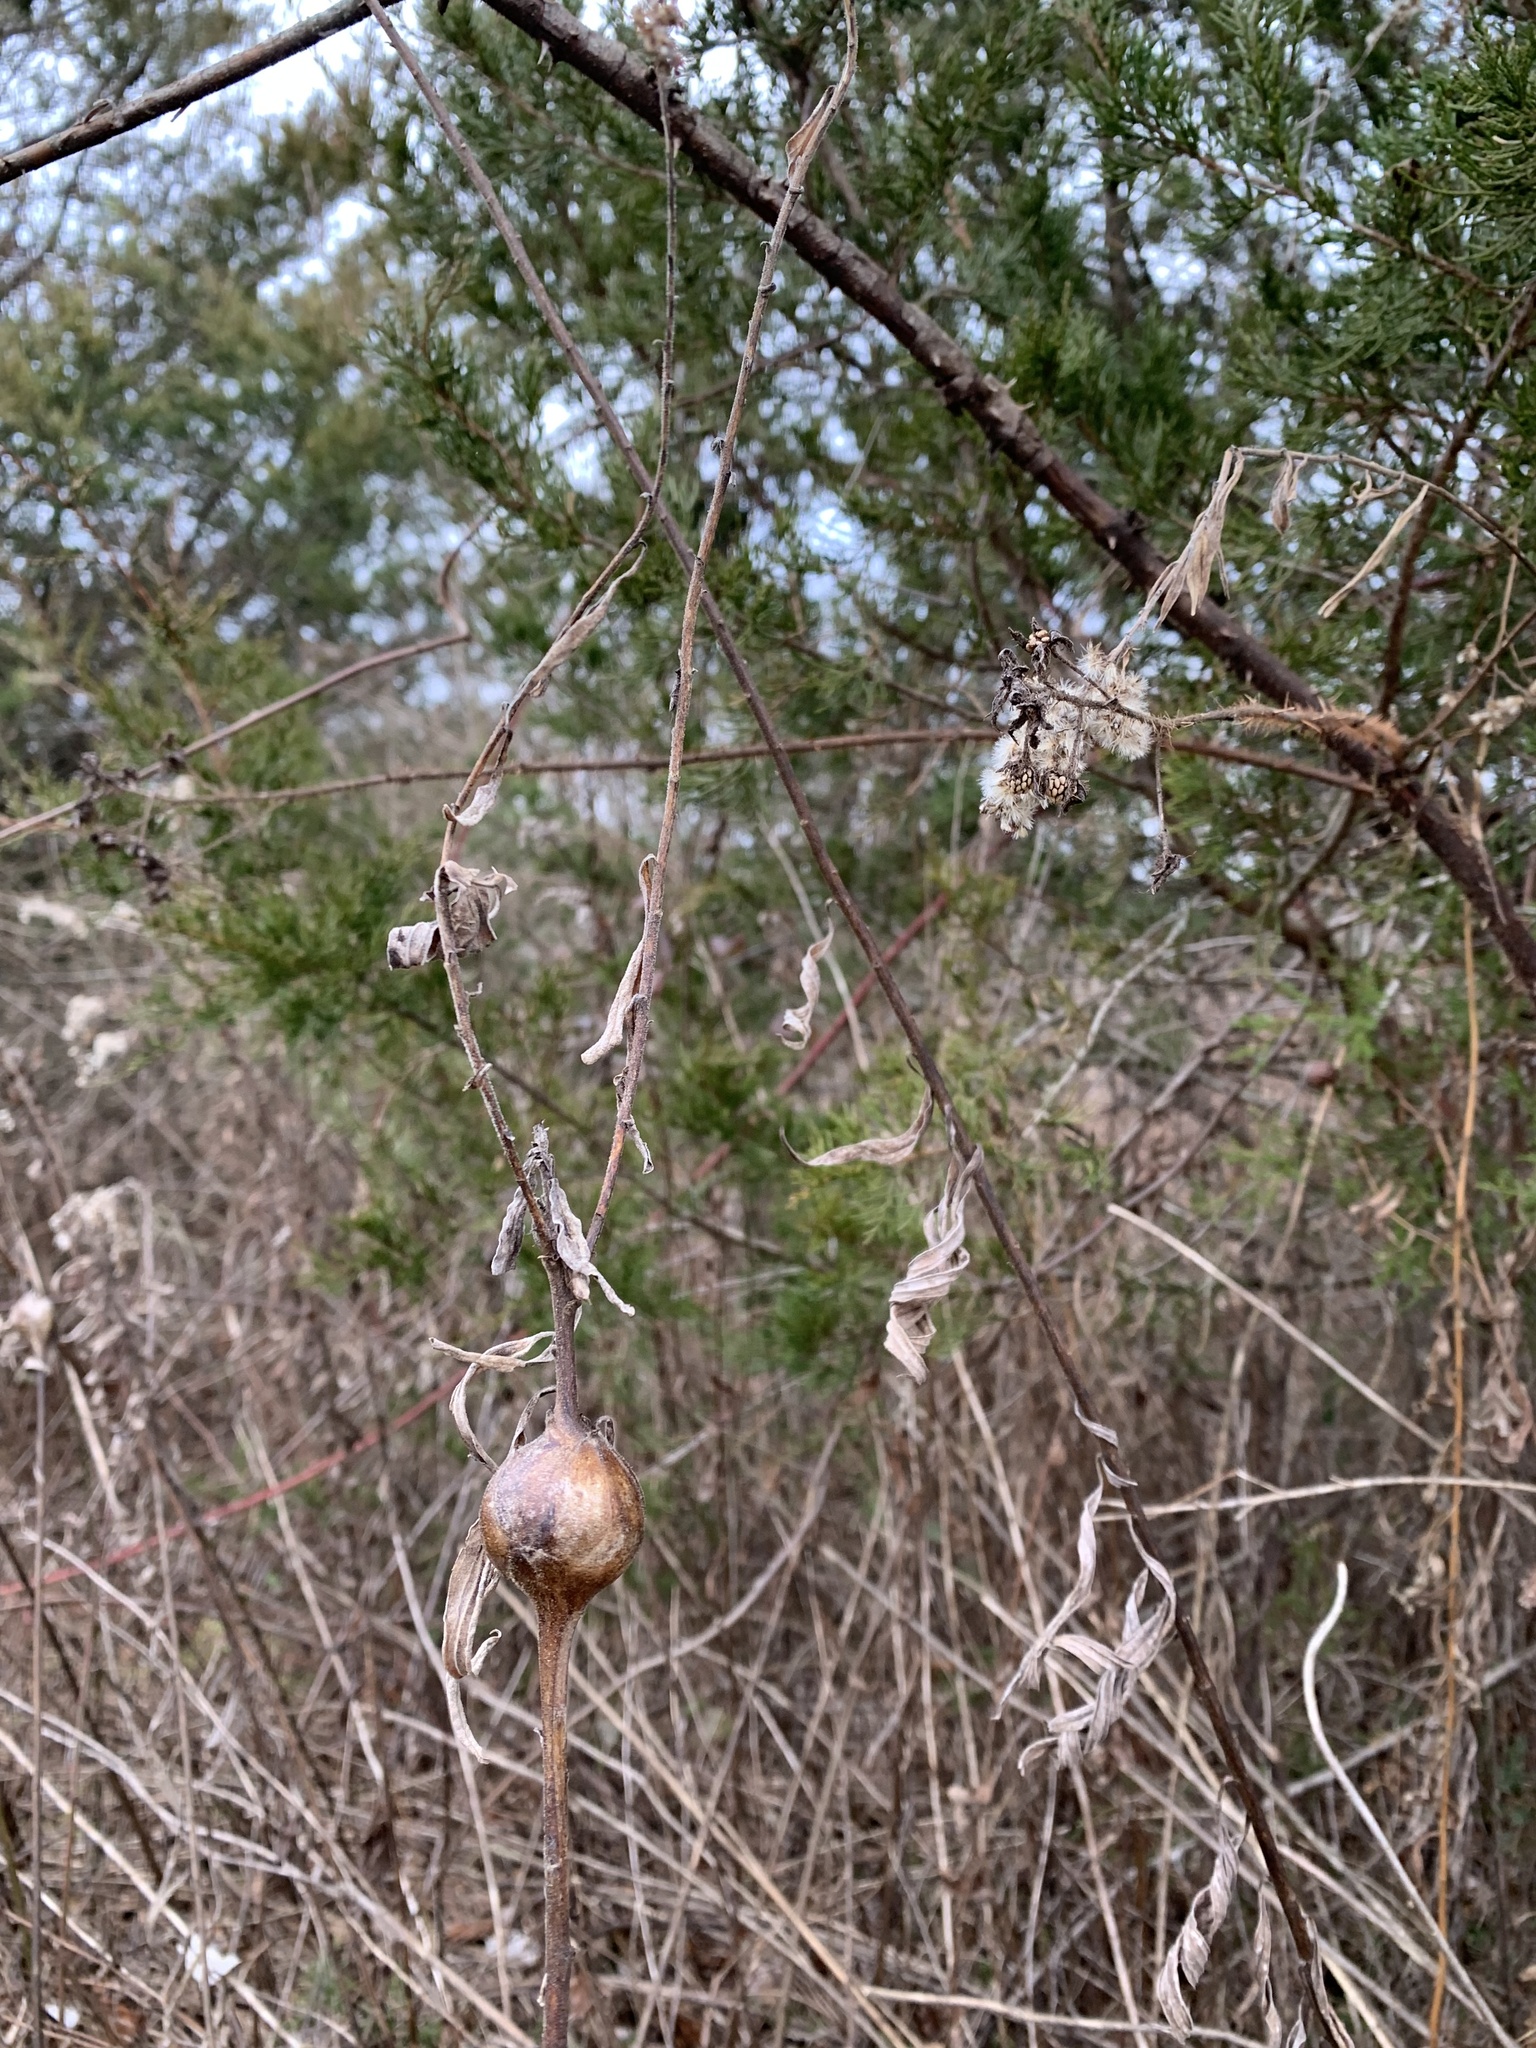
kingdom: Animalia
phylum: Arthropoda
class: Insecta
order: Diptera
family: Tephritidae
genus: Eurosta
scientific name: Eurosta solidaginis
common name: Goldenrod gall fly
